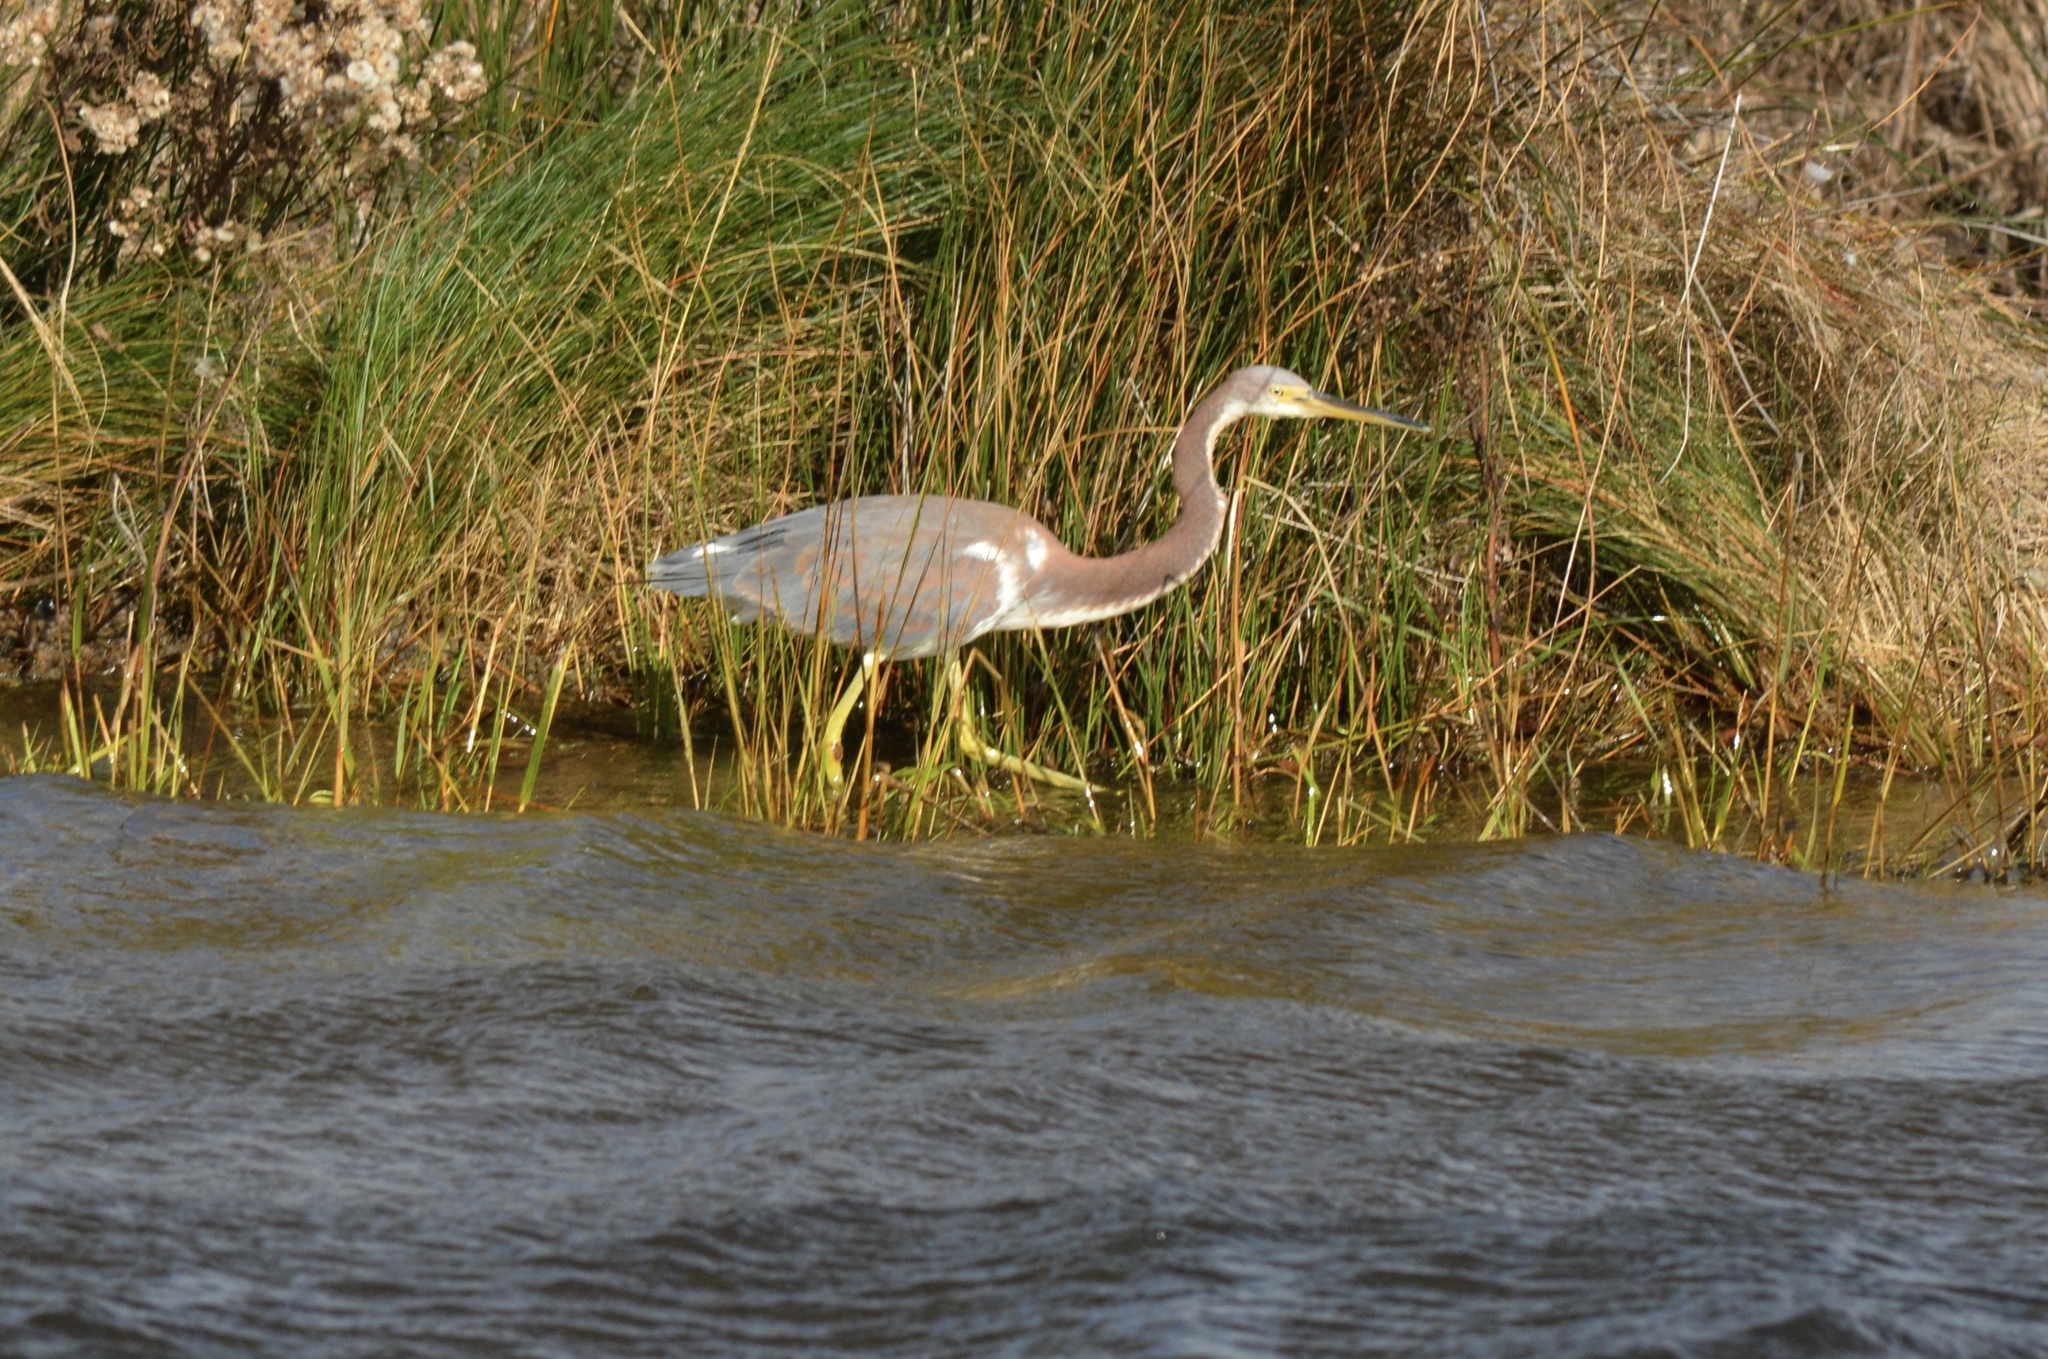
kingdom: Animalia
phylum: Chordata
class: Aves
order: Pelecaniformes
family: Ardeidae
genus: Egretta
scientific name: Egretta tricolor
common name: Tricolored heron
